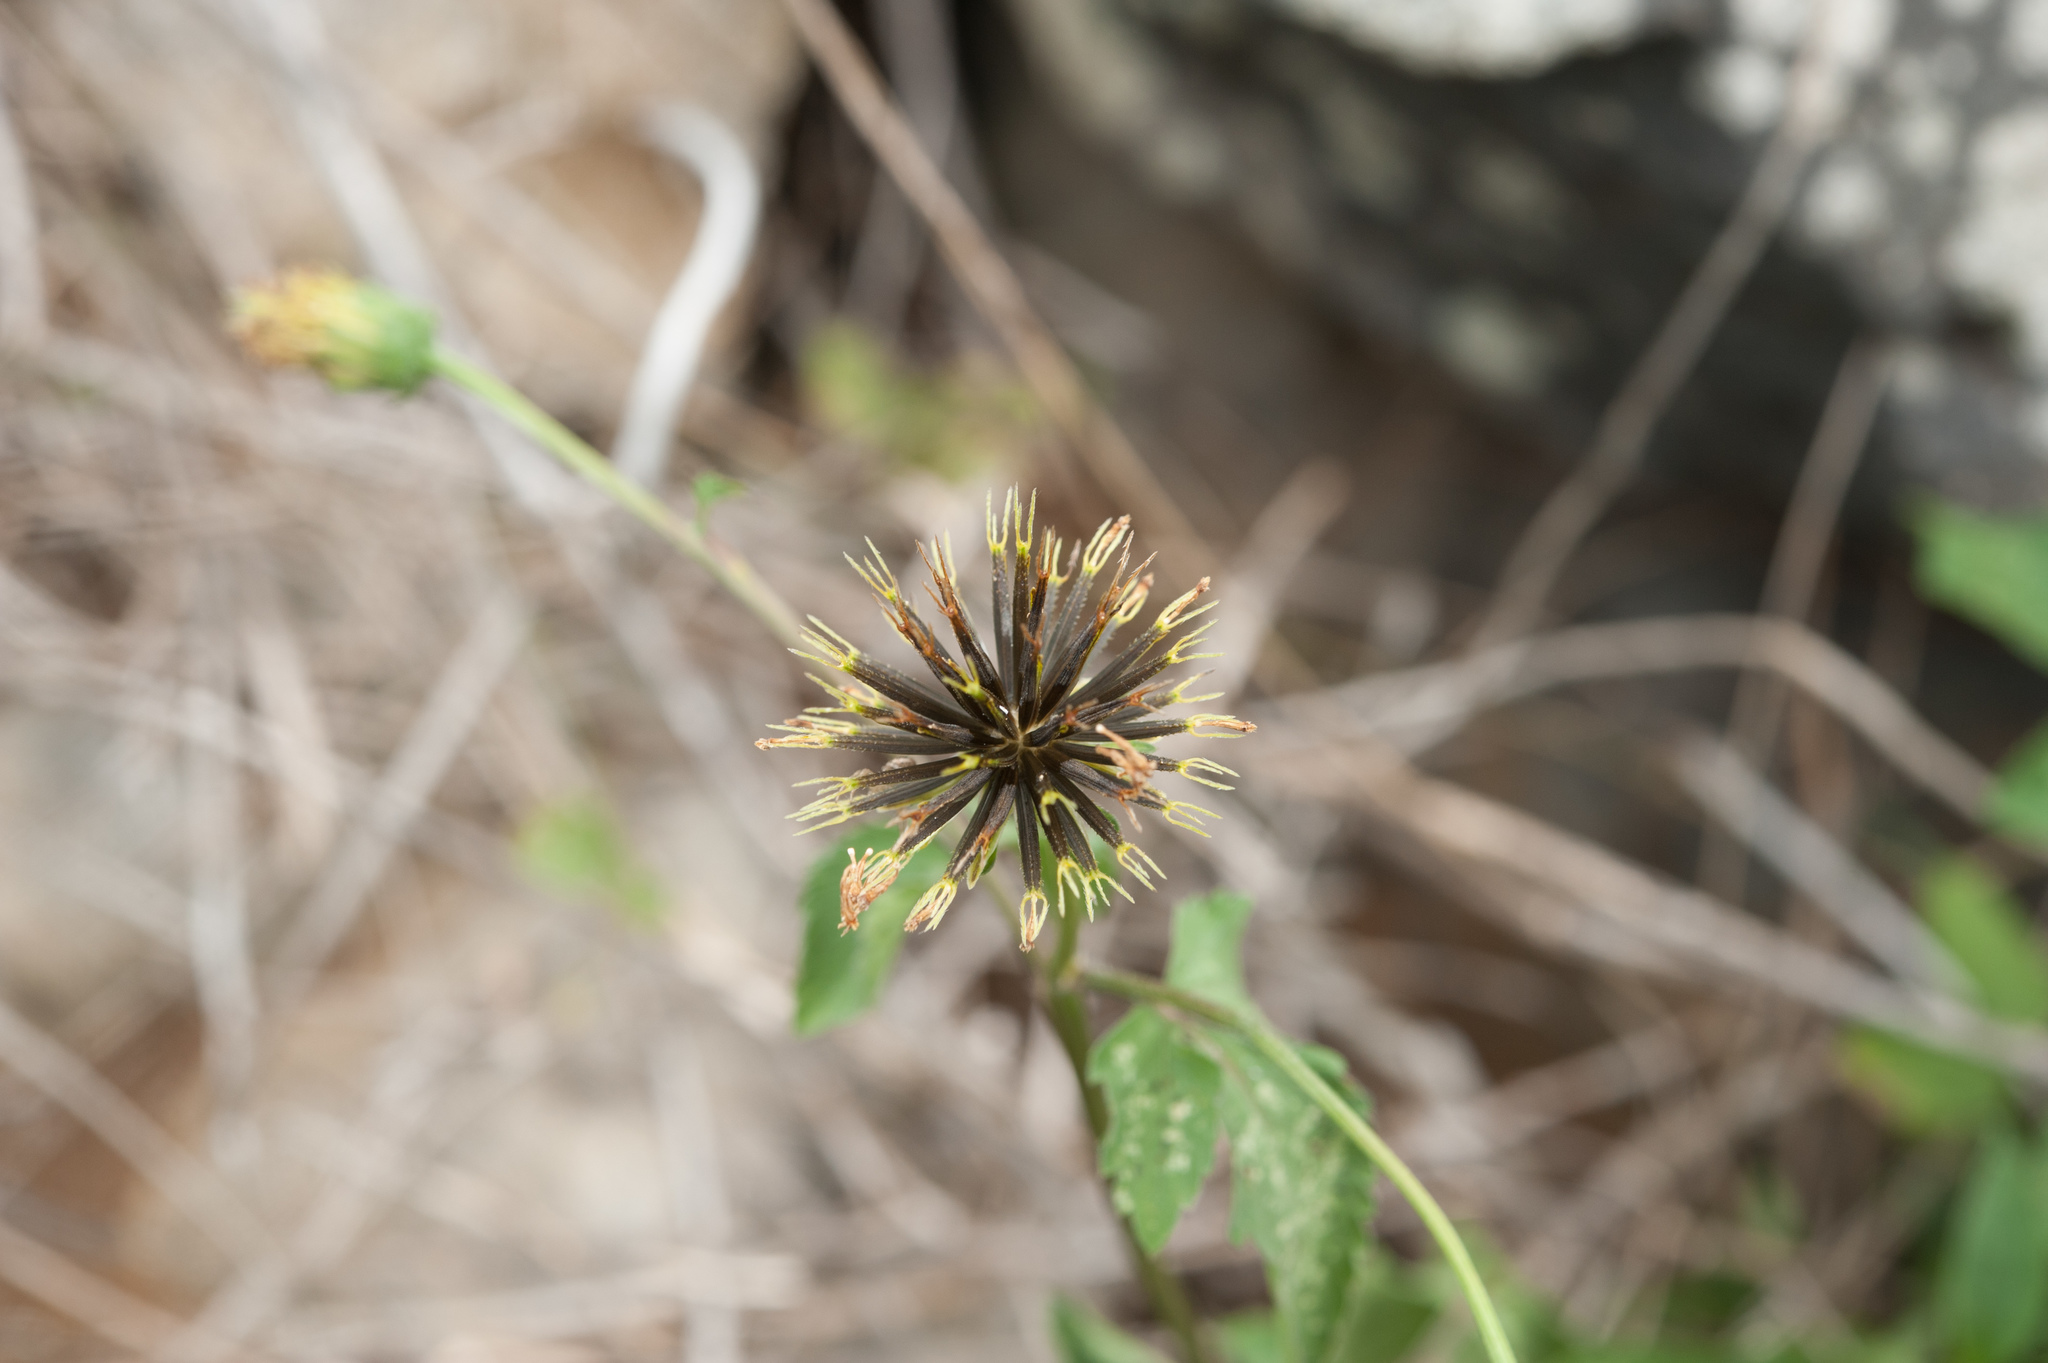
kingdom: Plantae
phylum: Tracheophyta
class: Magnoliopsida
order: Asterales
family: Asteraceae
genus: Bidens
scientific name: Bidens pilosa
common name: Black-jack
